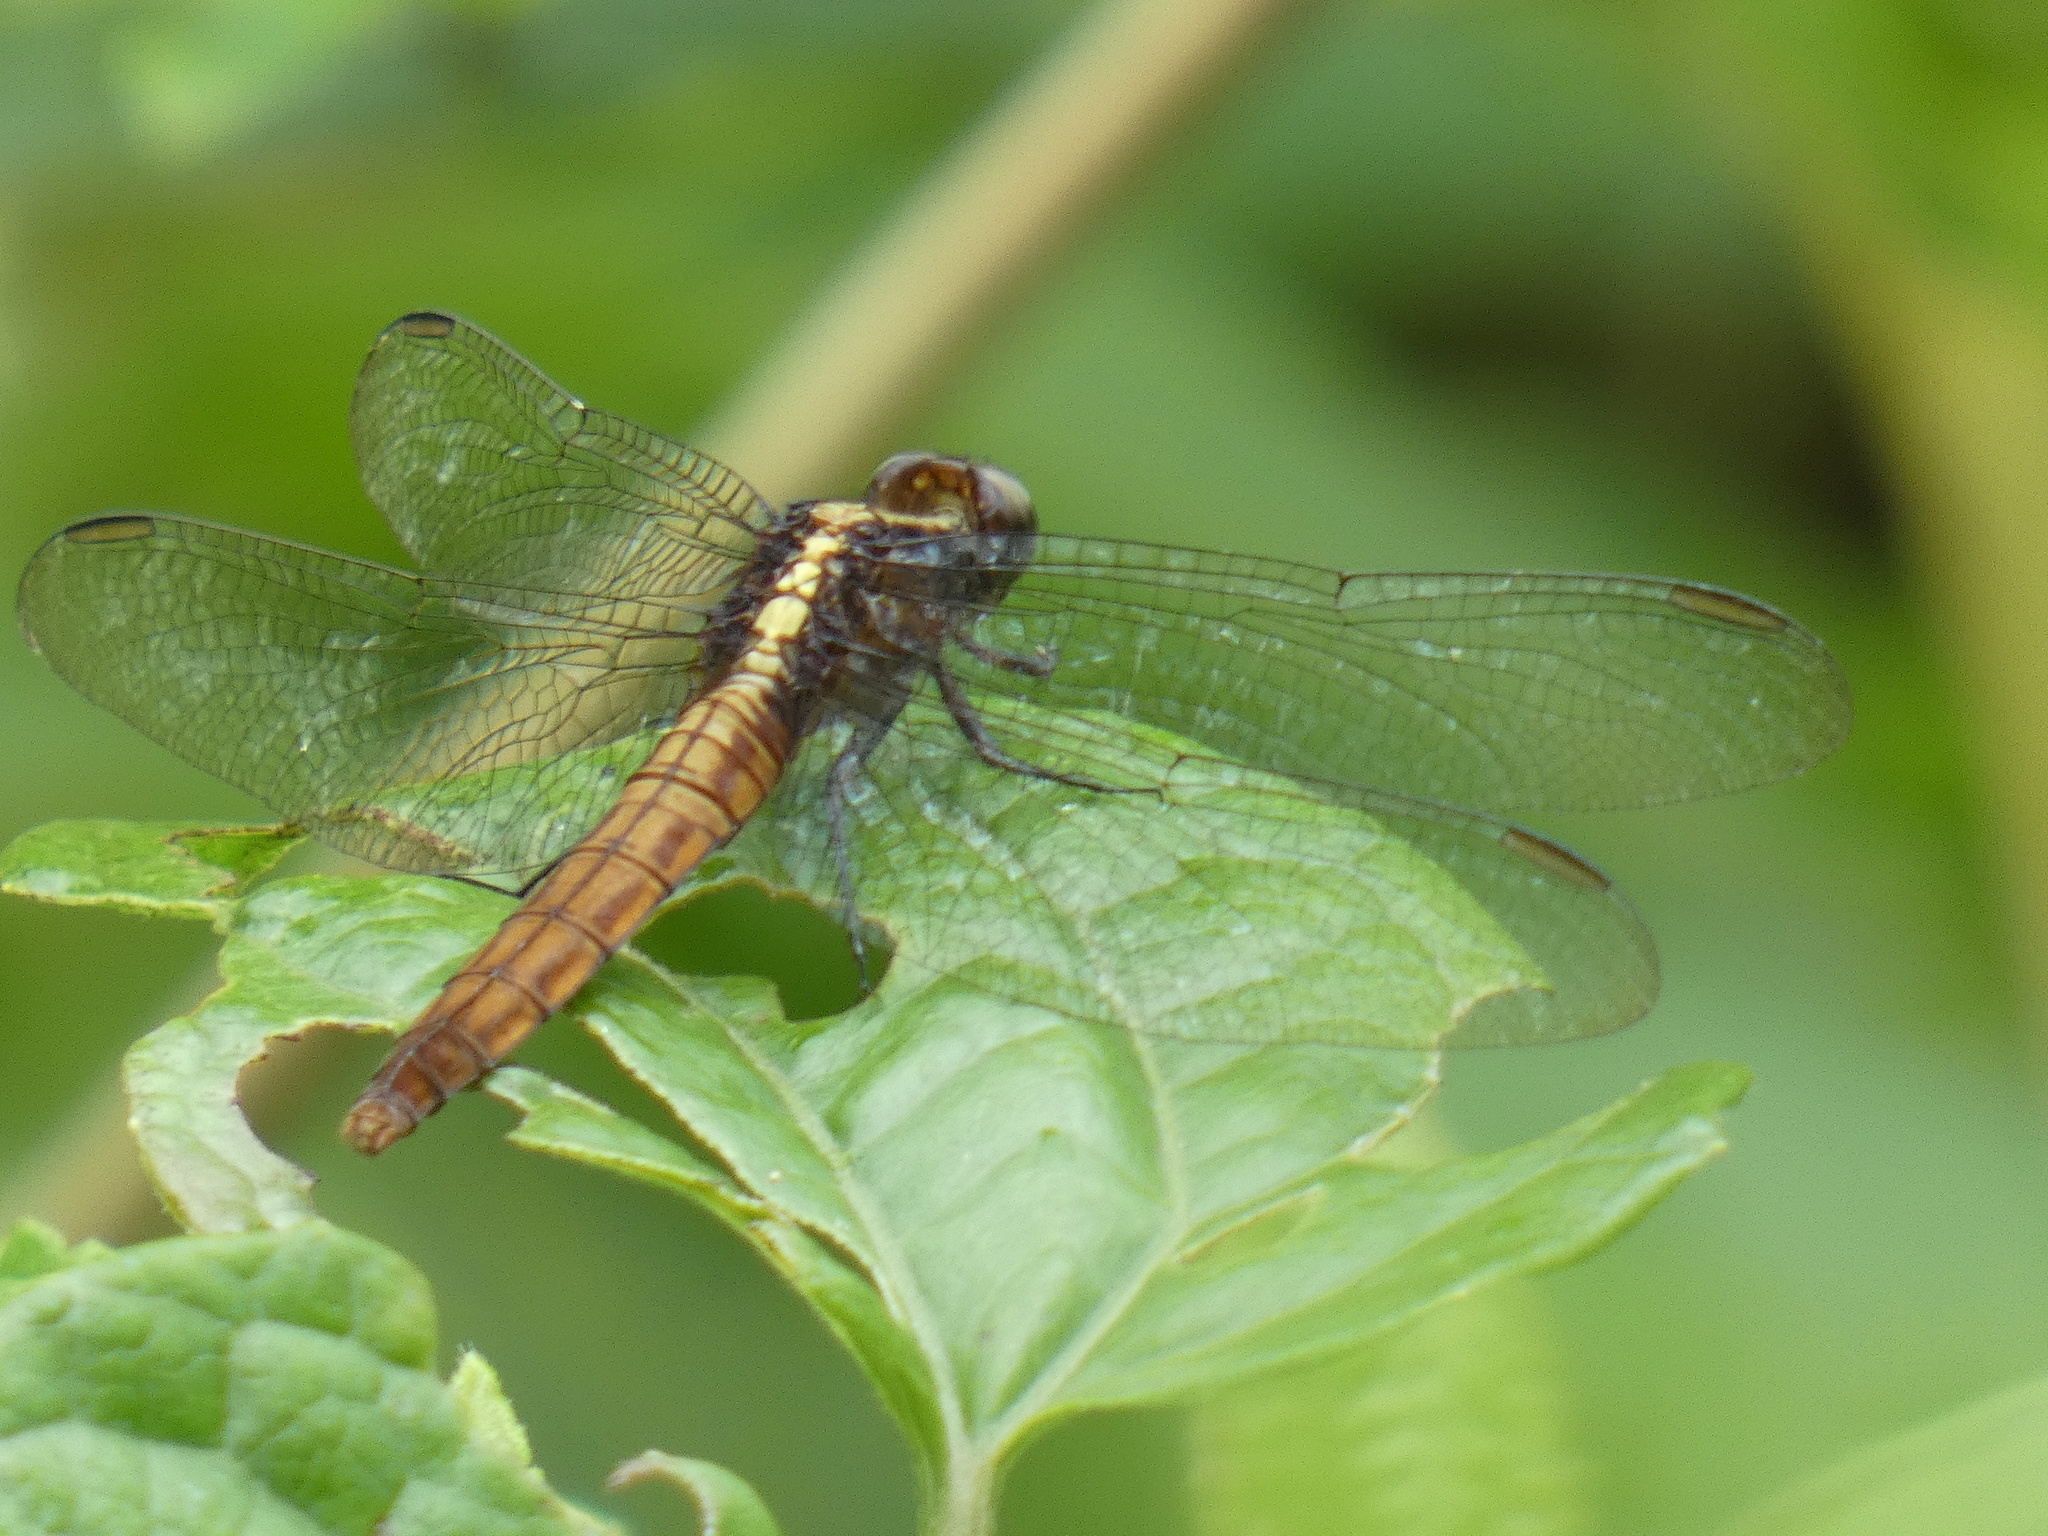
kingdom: Animalia
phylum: Arthropoda
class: Insecta
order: Odonata
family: Libellulidae
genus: Erythemis
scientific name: Erythemis peruviana
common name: Flame-tailed pondhawk
